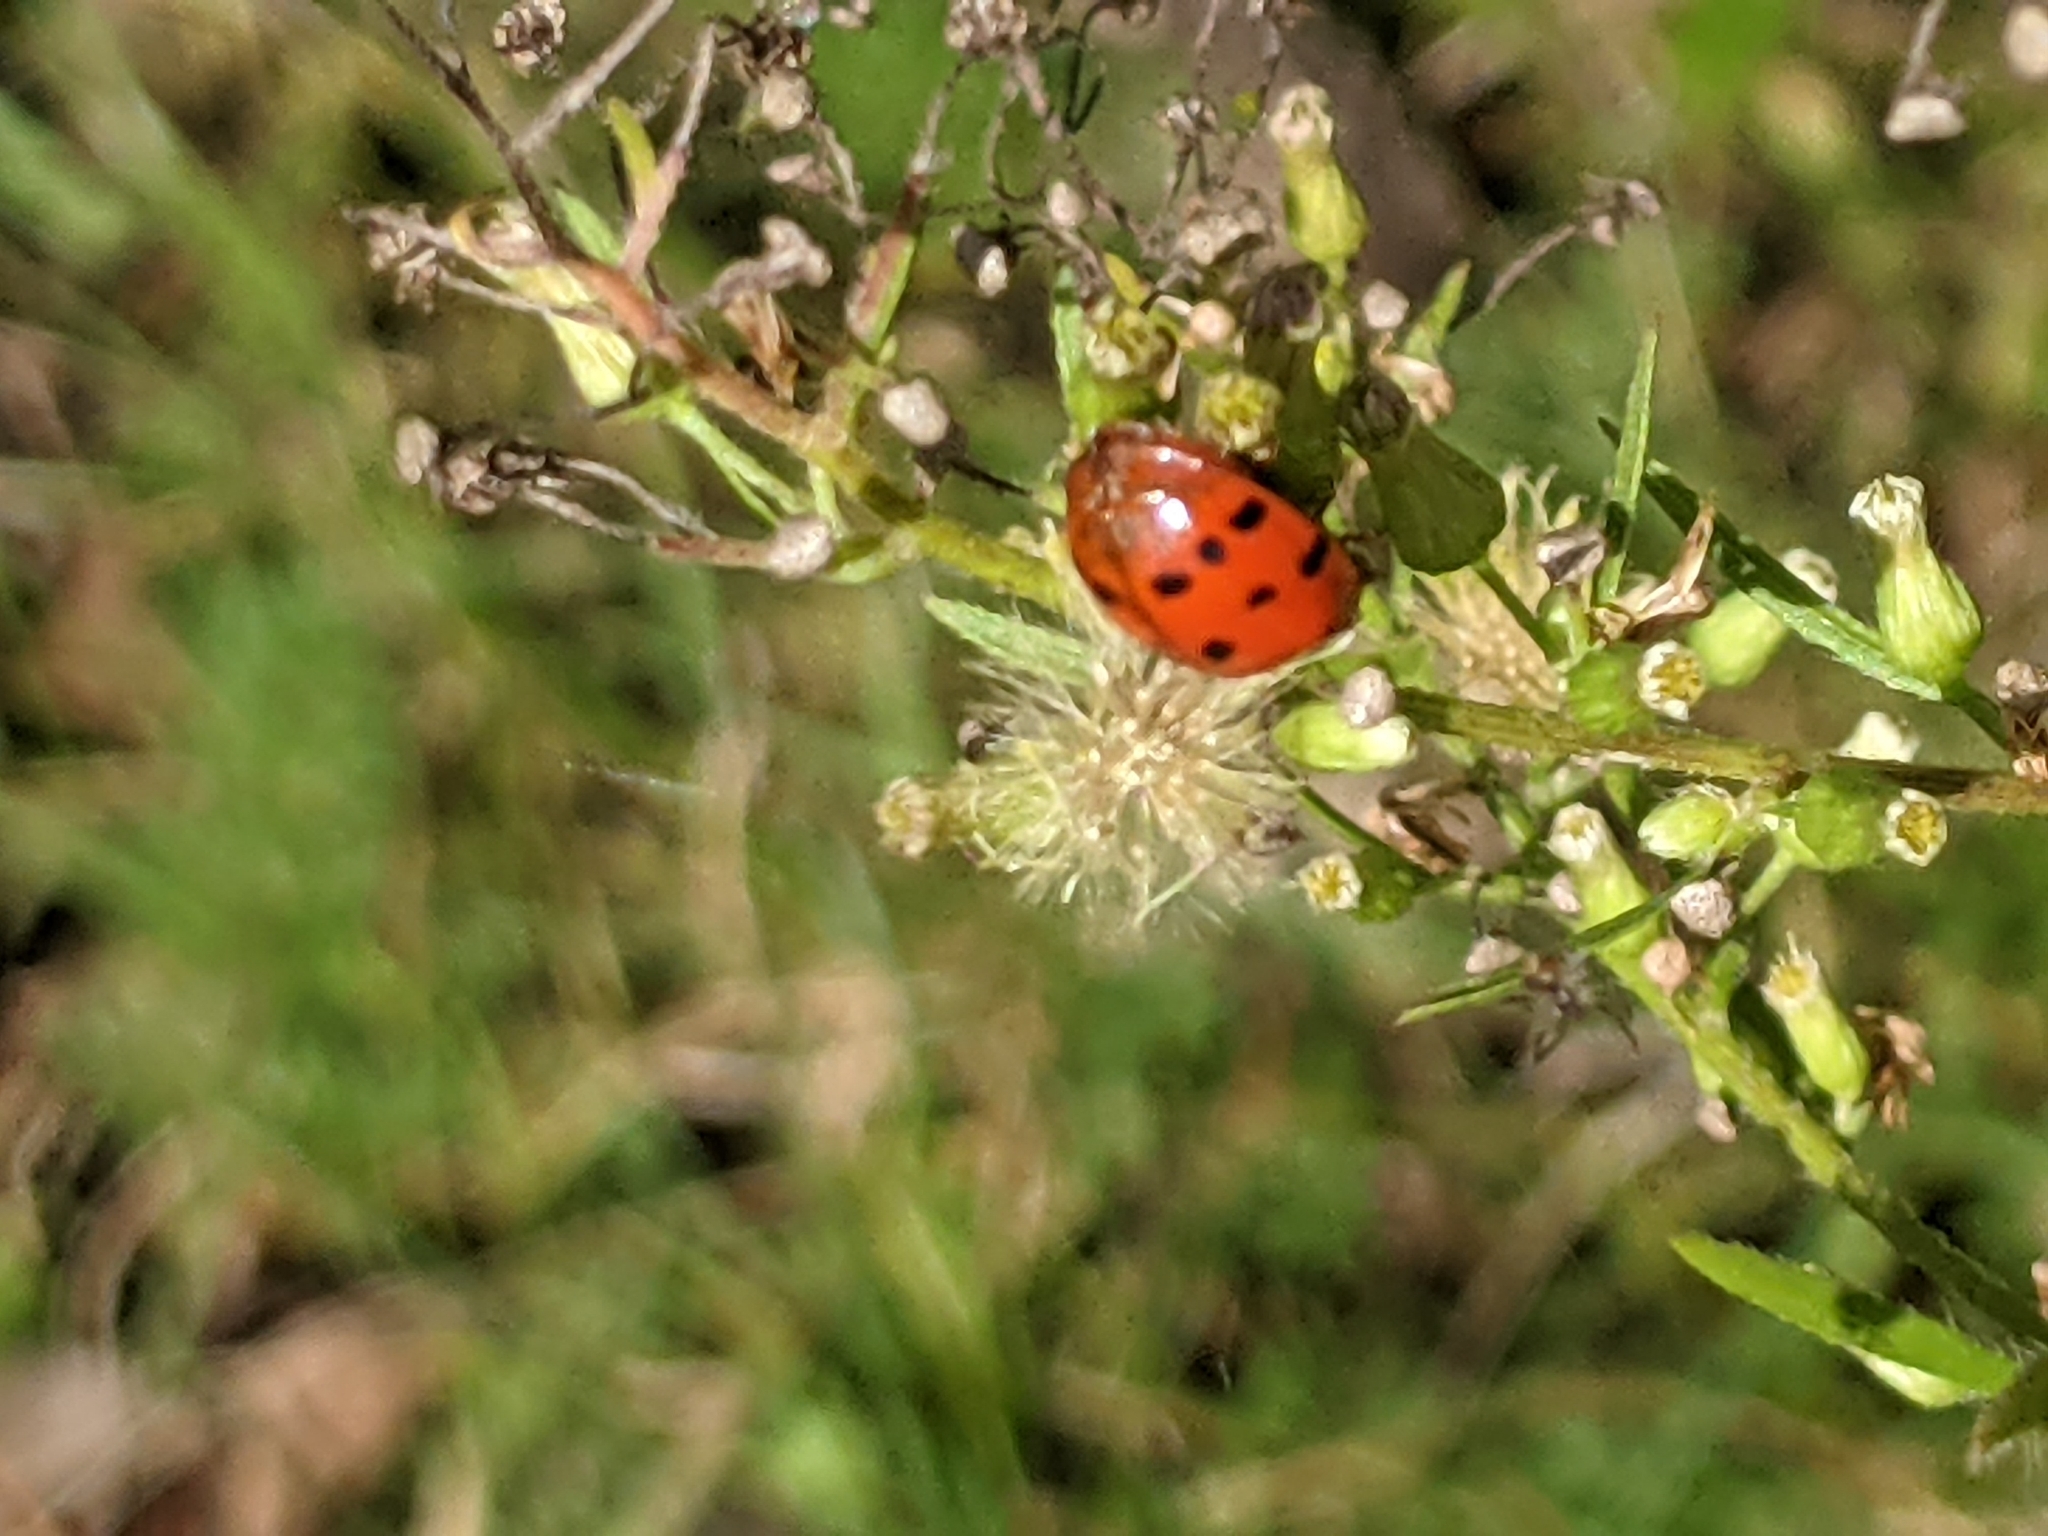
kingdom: Animalia
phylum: Arthropoda
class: Insecta
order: Coleoptera
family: Coccinellidae
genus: Harmonia
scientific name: Harmonia axyridis
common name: Harlequin ladybird
